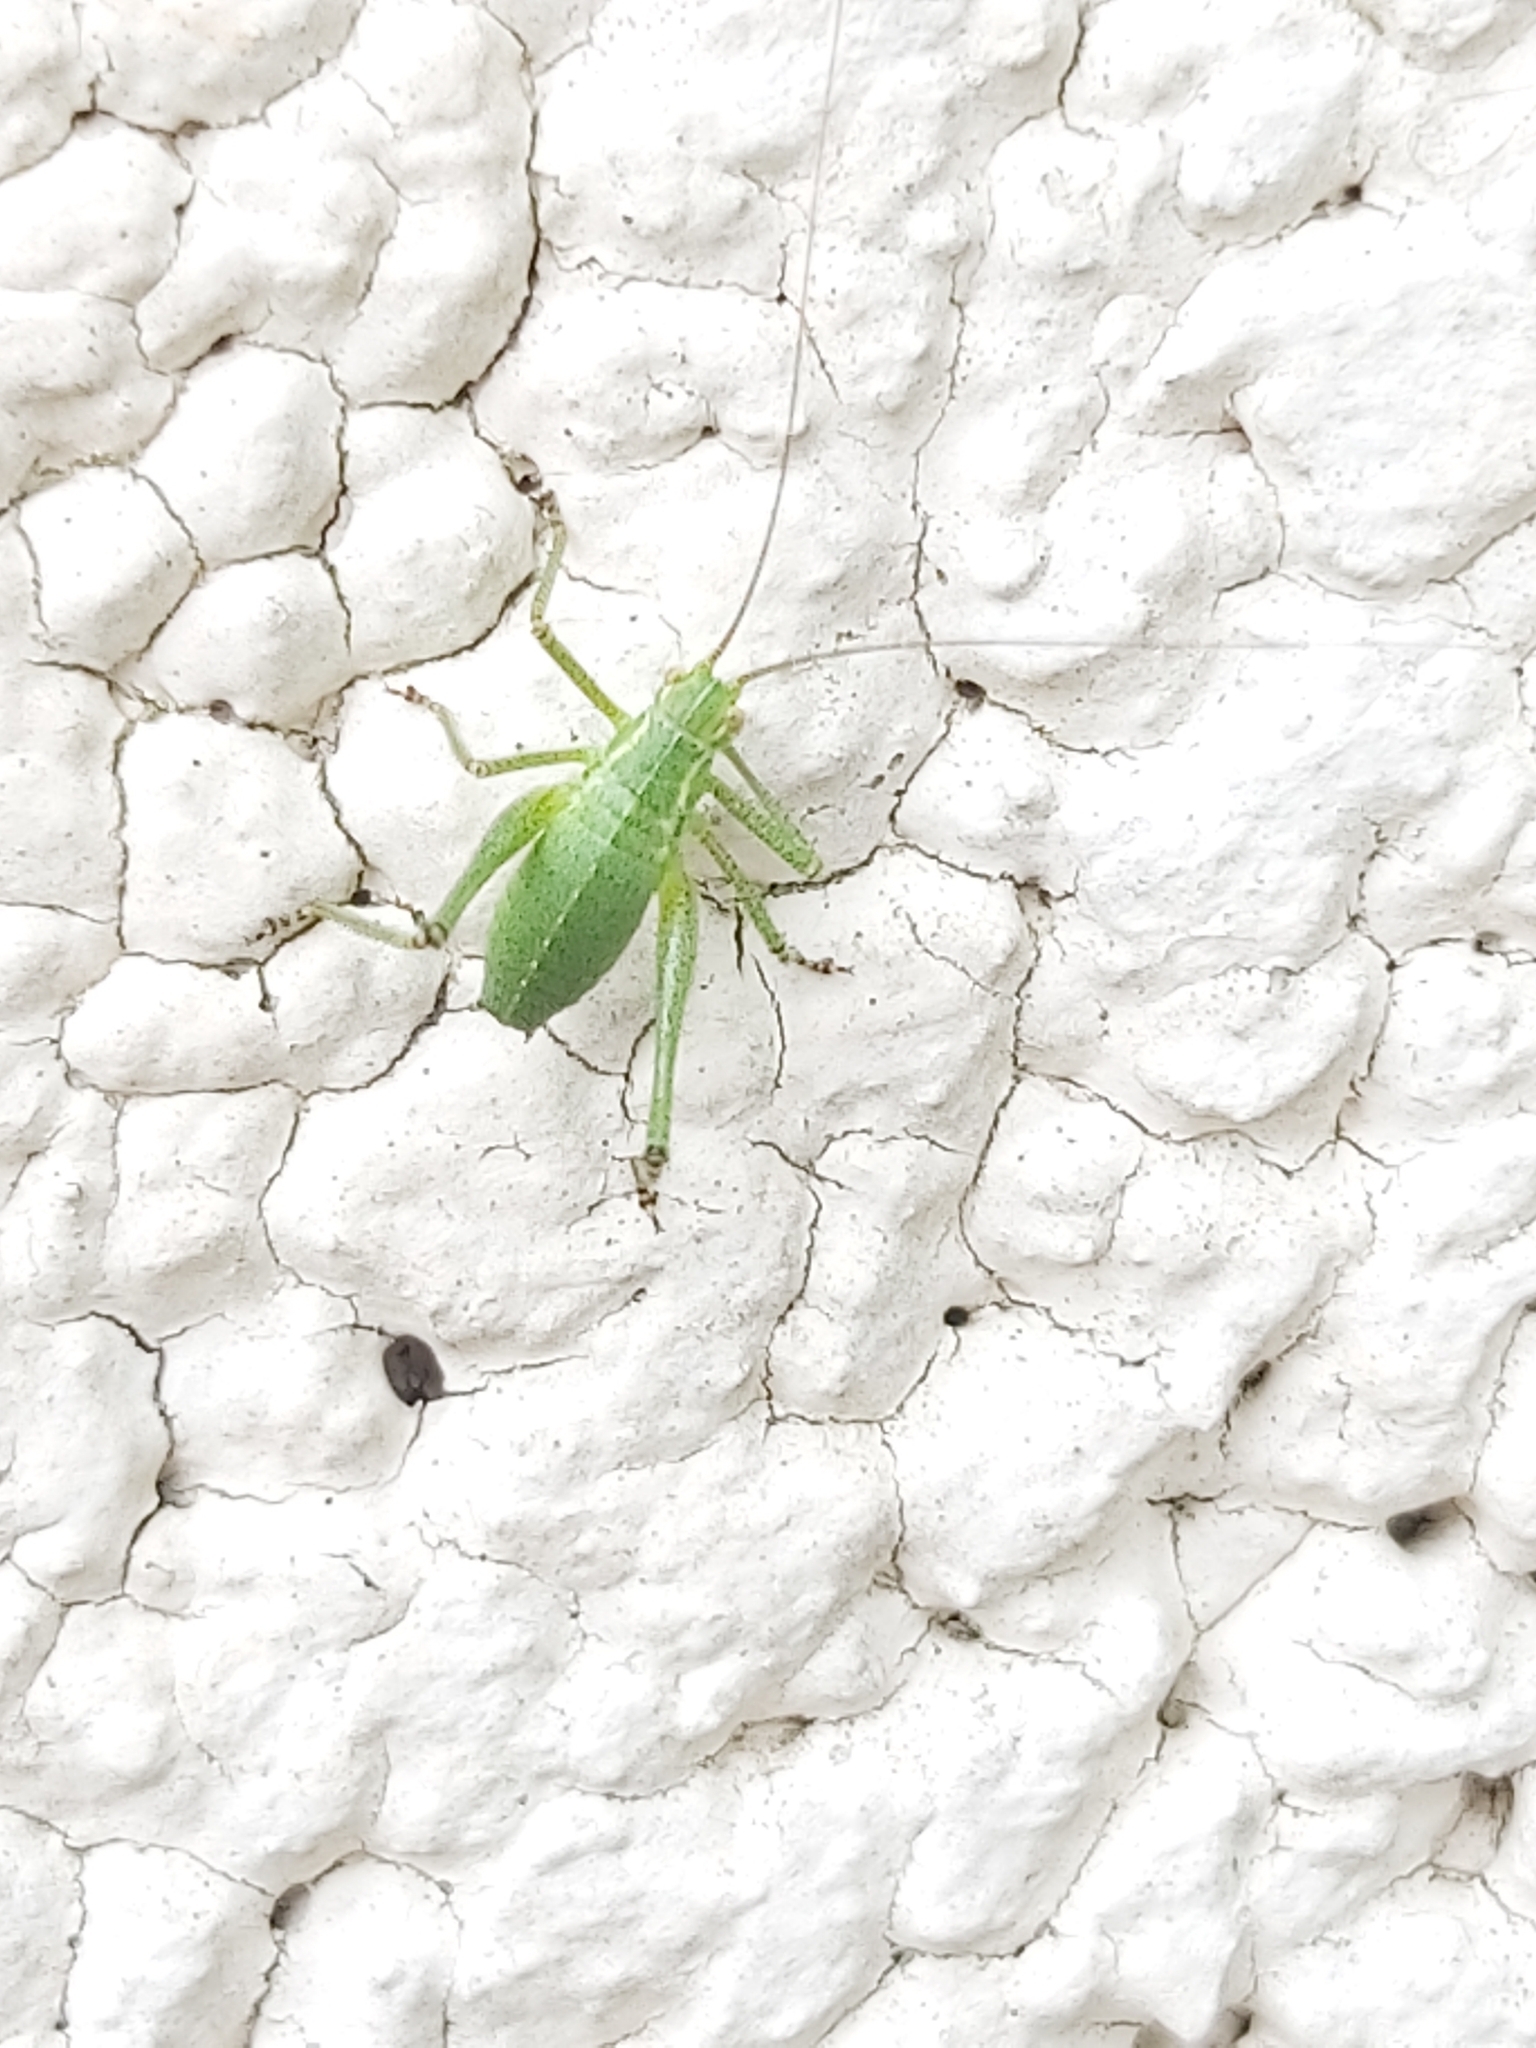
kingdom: Animalia
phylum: Arthropoda
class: Insecta
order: Orthoptera
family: Tettigoniidae
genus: Leptophyes
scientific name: Leptophyes punctatissima
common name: Speckled bush-cricket
